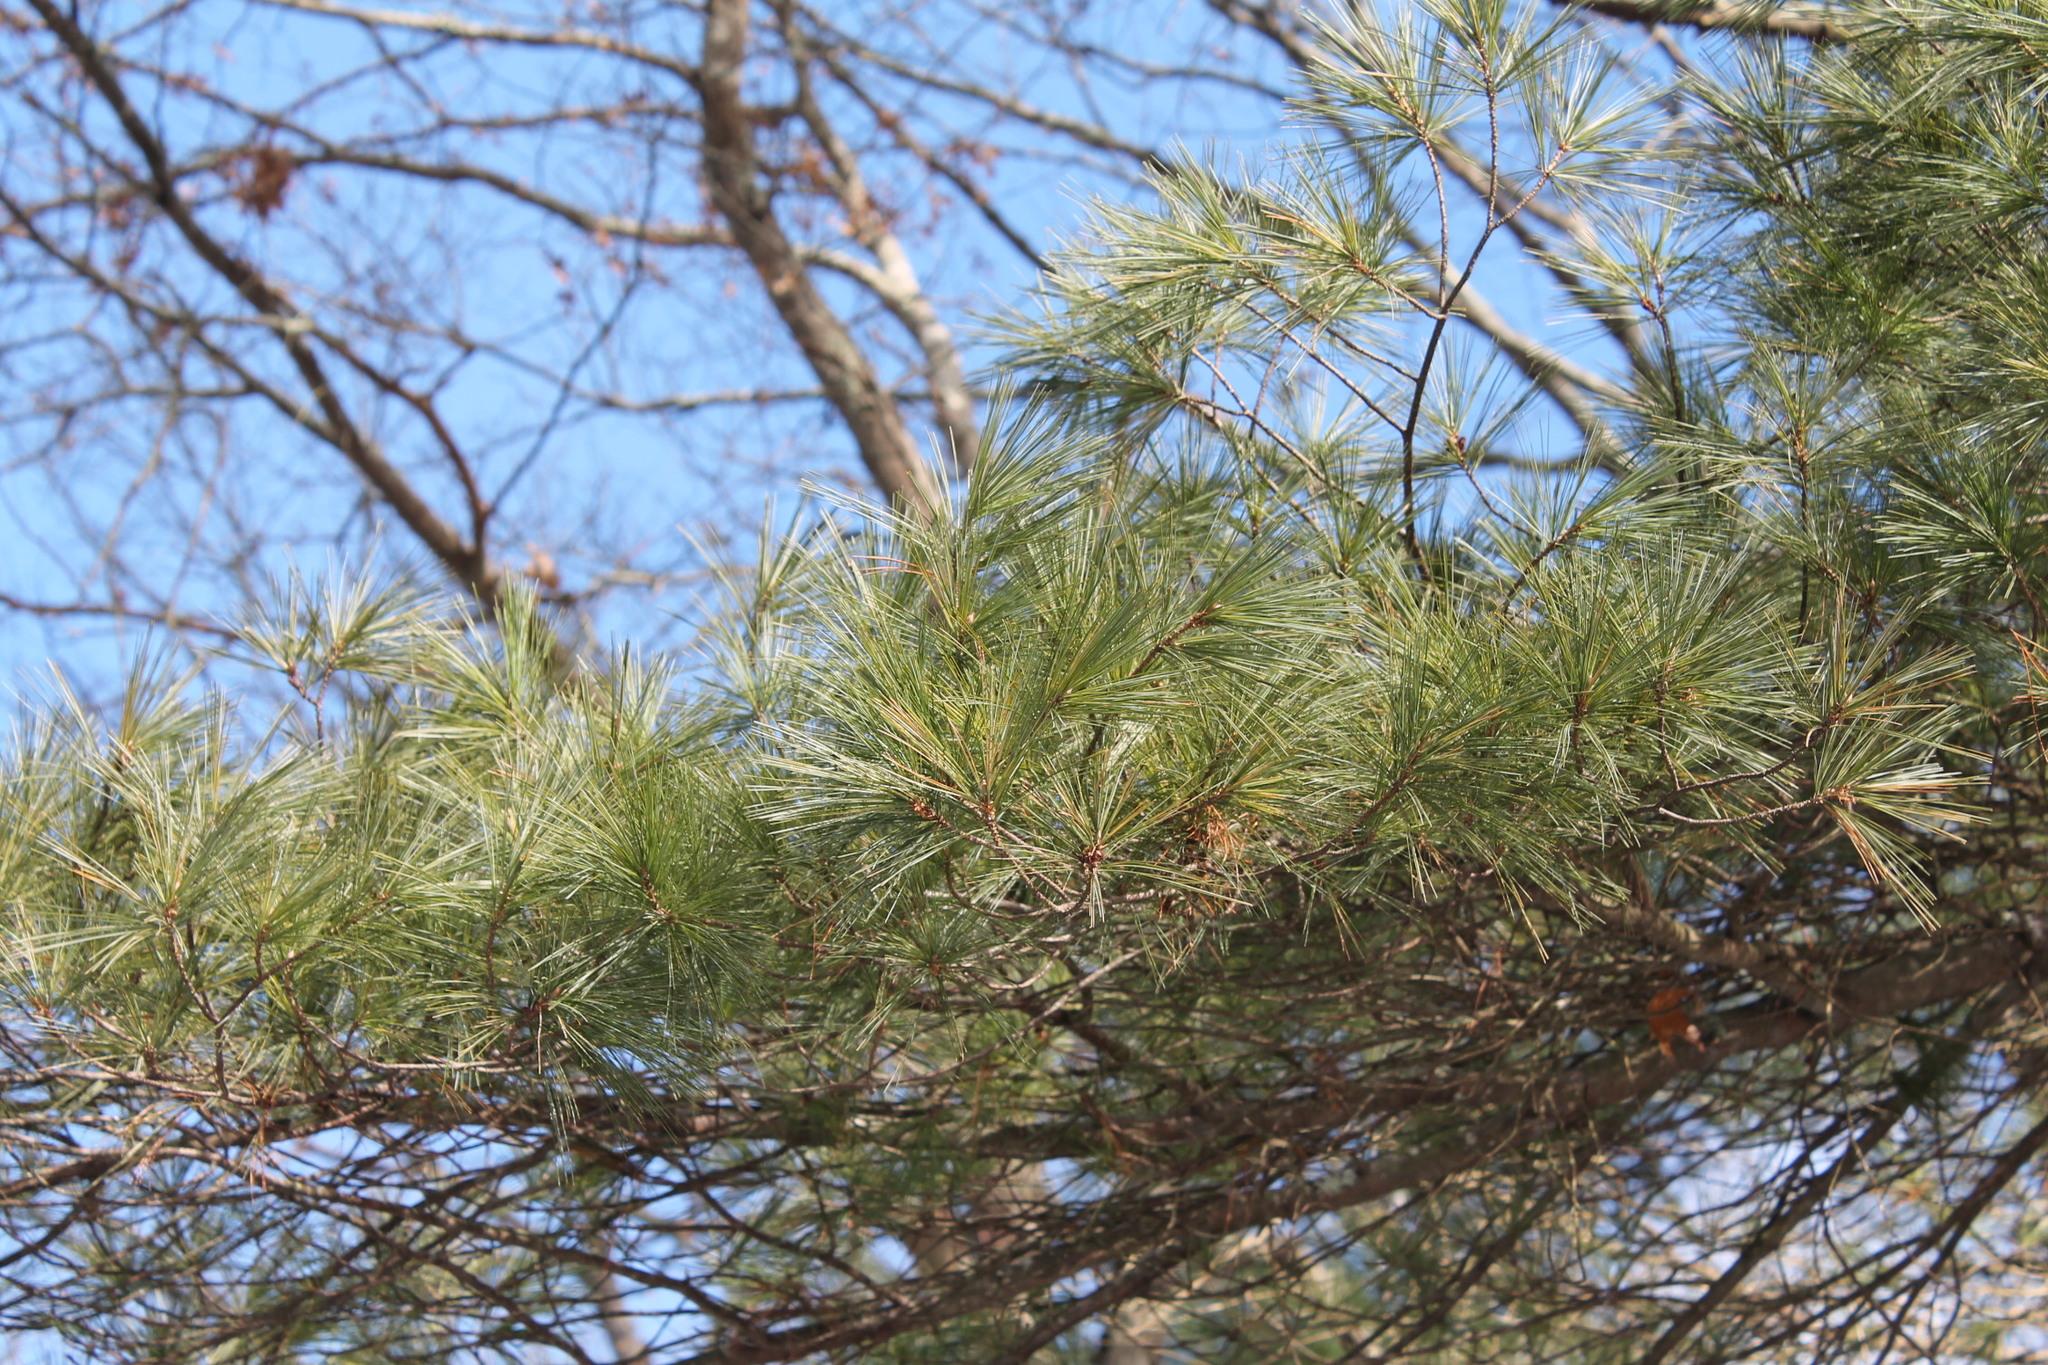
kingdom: Plantae
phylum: Tracheophyta
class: Pinopsida
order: Pinales
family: Pinaceae
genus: Pinus
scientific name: Pinus strobus
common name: Weymouth pine
